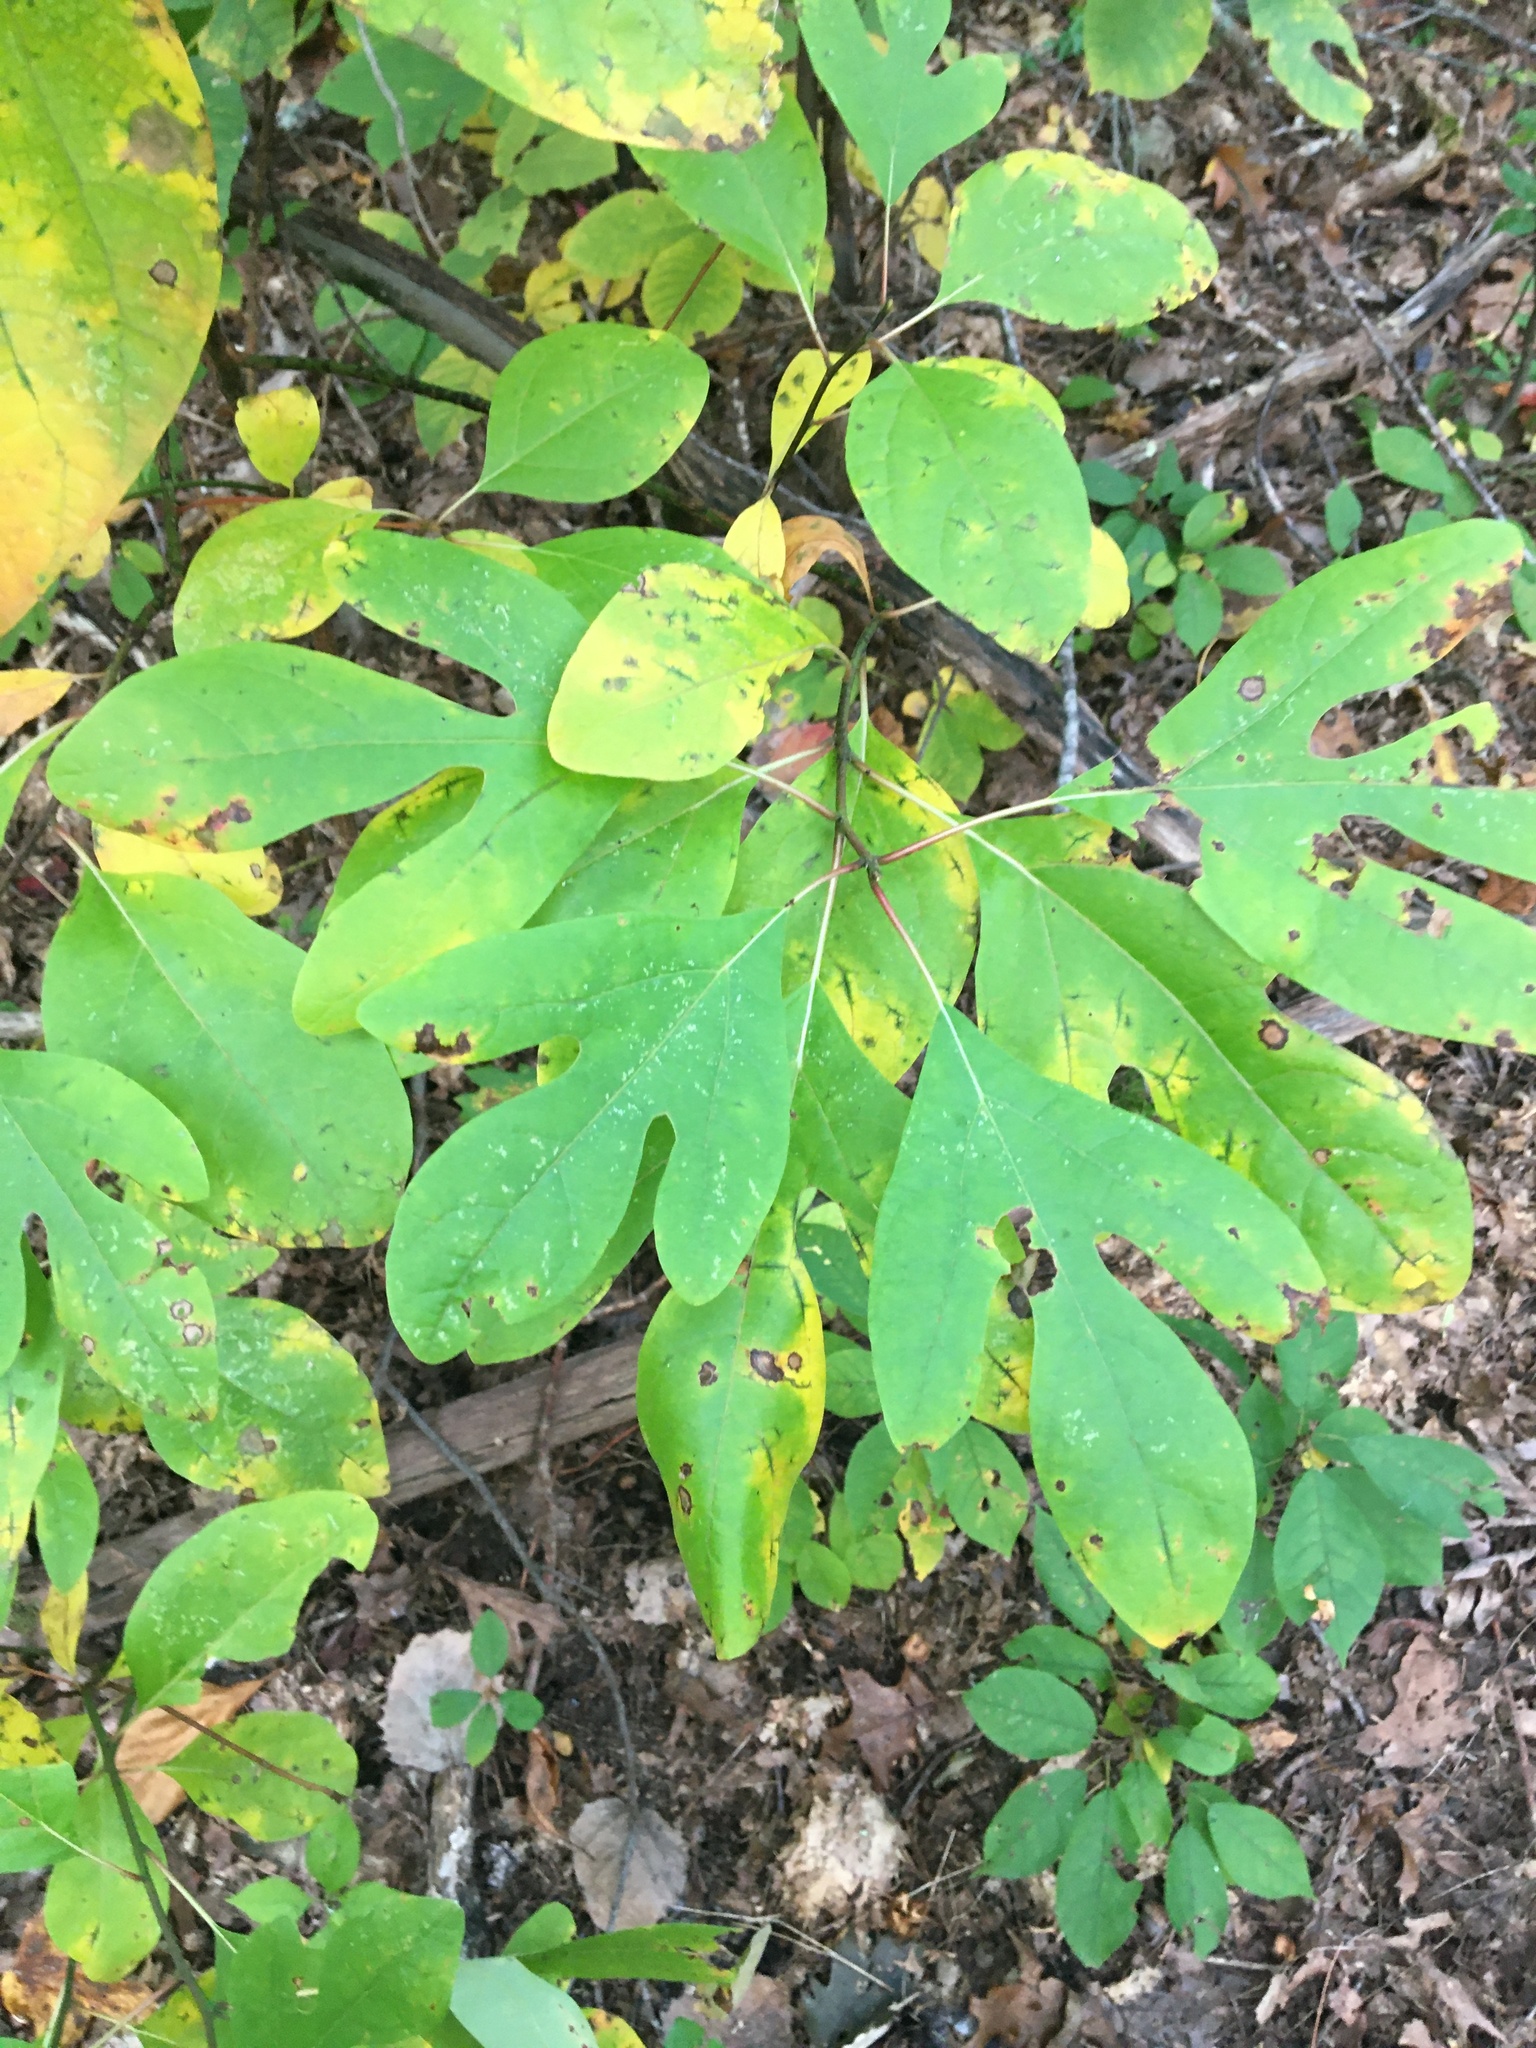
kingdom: Plantae
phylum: Tracheophyta
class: Magnoliopsida
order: Laurales
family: Lauraceae
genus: Sassafras
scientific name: Sassafras albidum
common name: Sassafras
